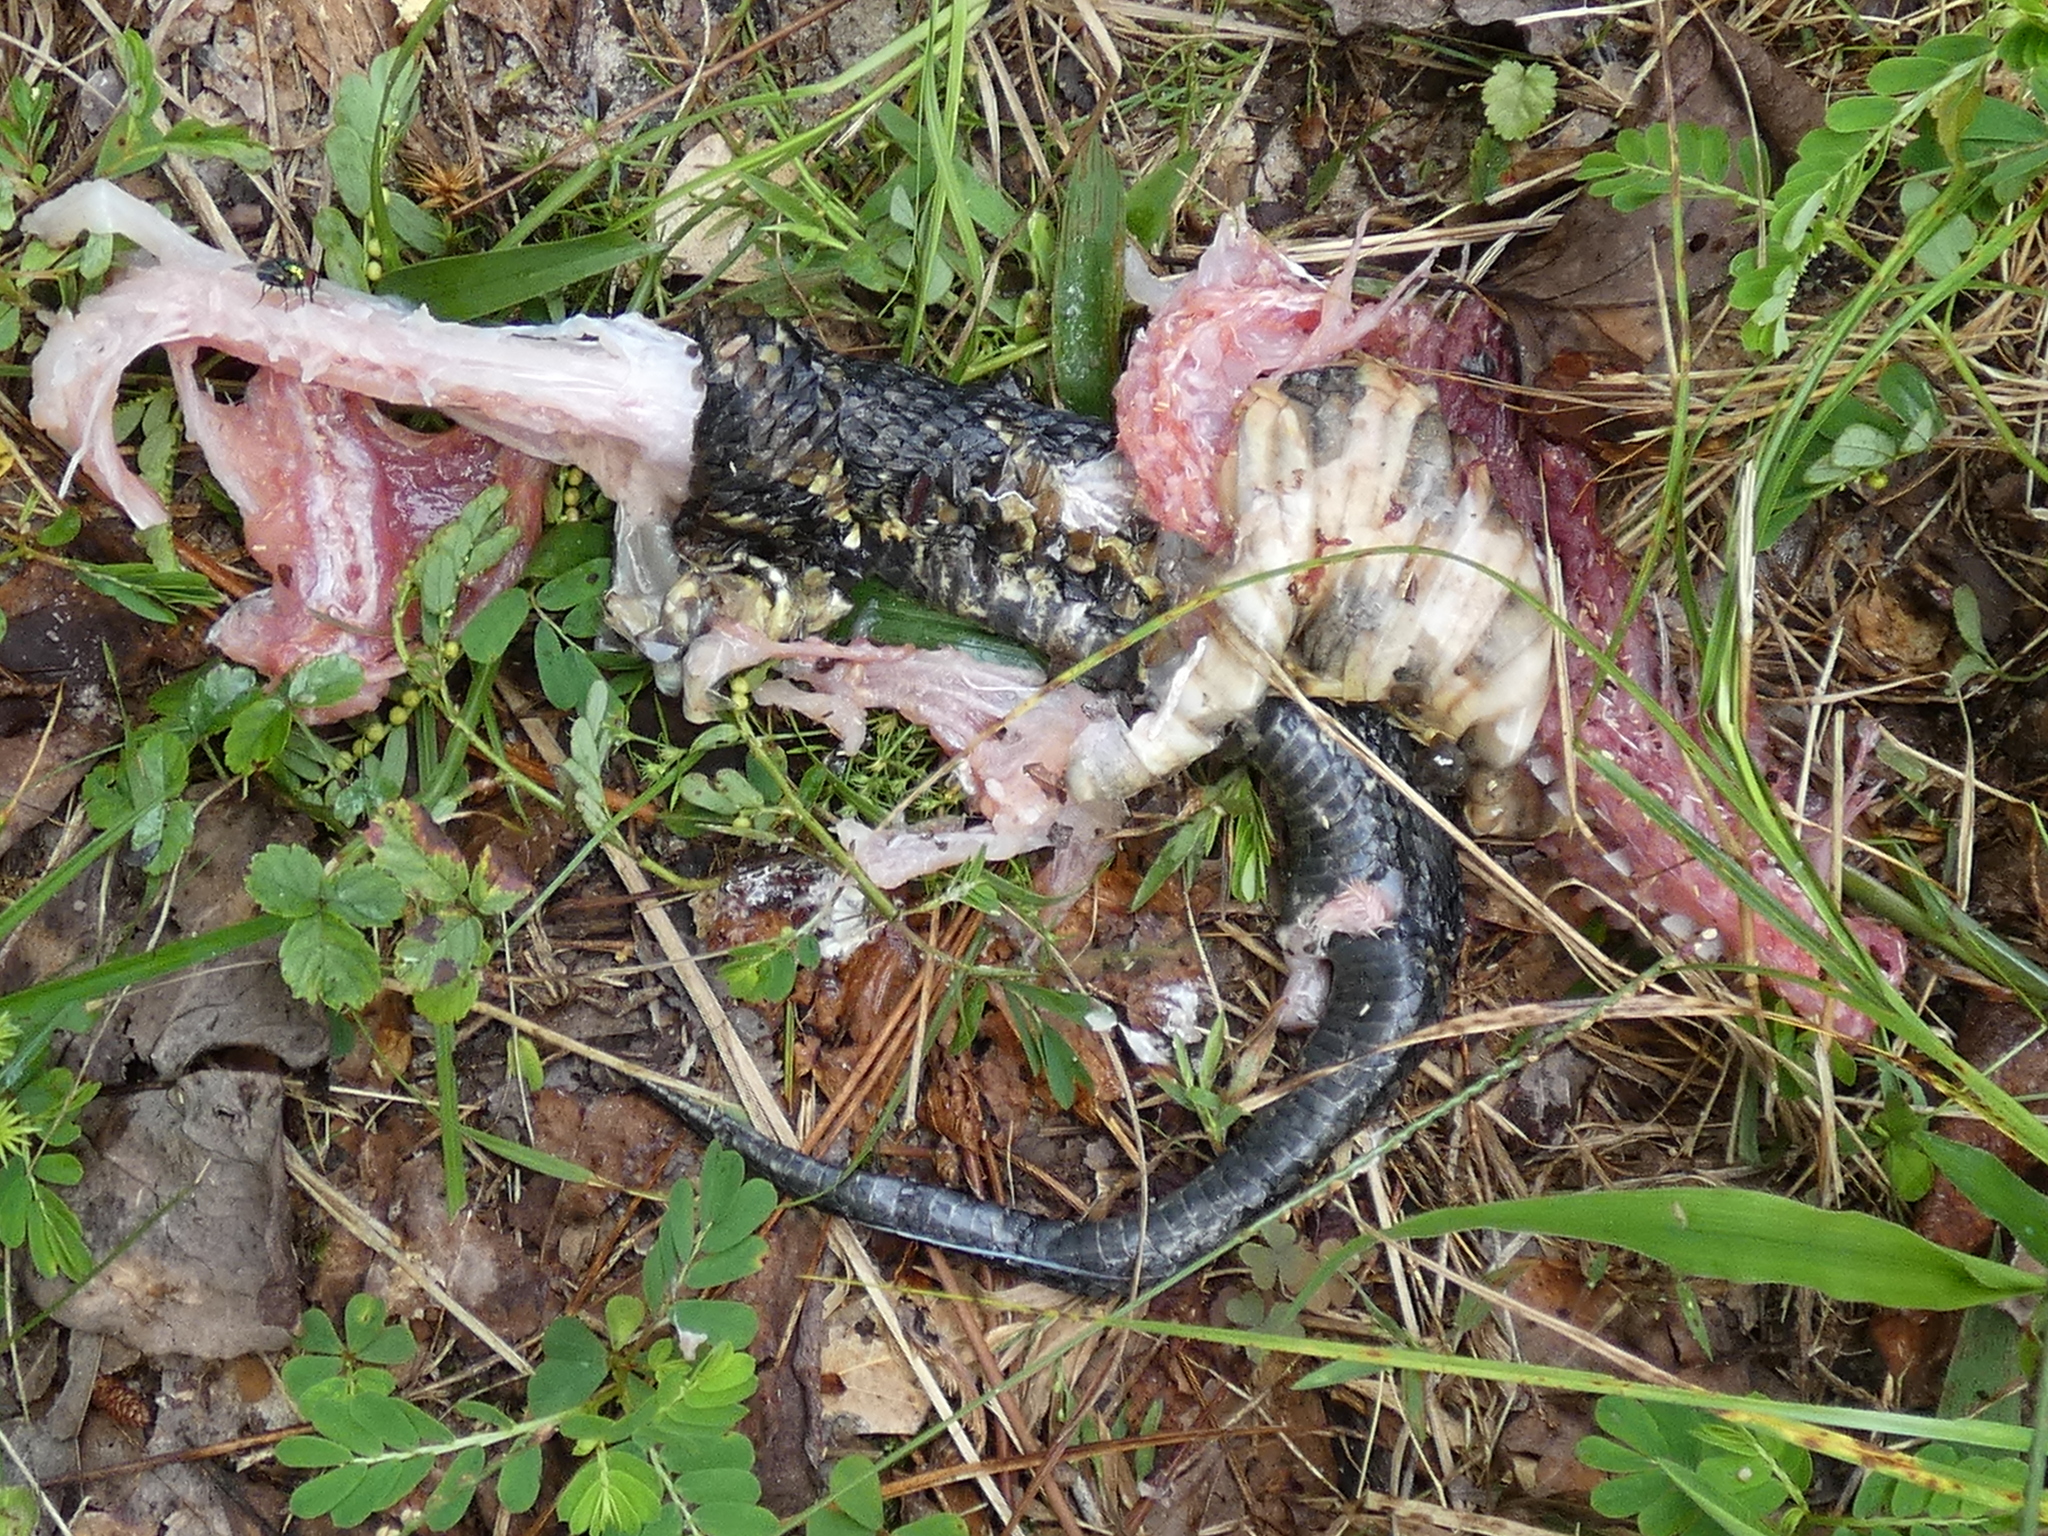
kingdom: Animalia
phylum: Chordata
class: Squamata
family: Viperidae
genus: Agkistrodon
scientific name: Agkistrodon piscivorus
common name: Cottonmouth
